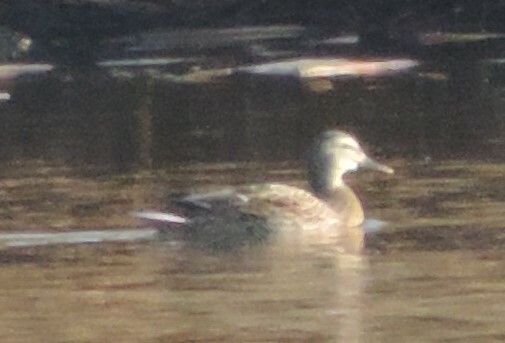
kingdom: Animalia
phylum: Chordata
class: Aves
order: Anseriformes
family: Anatidae
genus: Mareca
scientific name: Mareca strepera
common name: Gadwall
